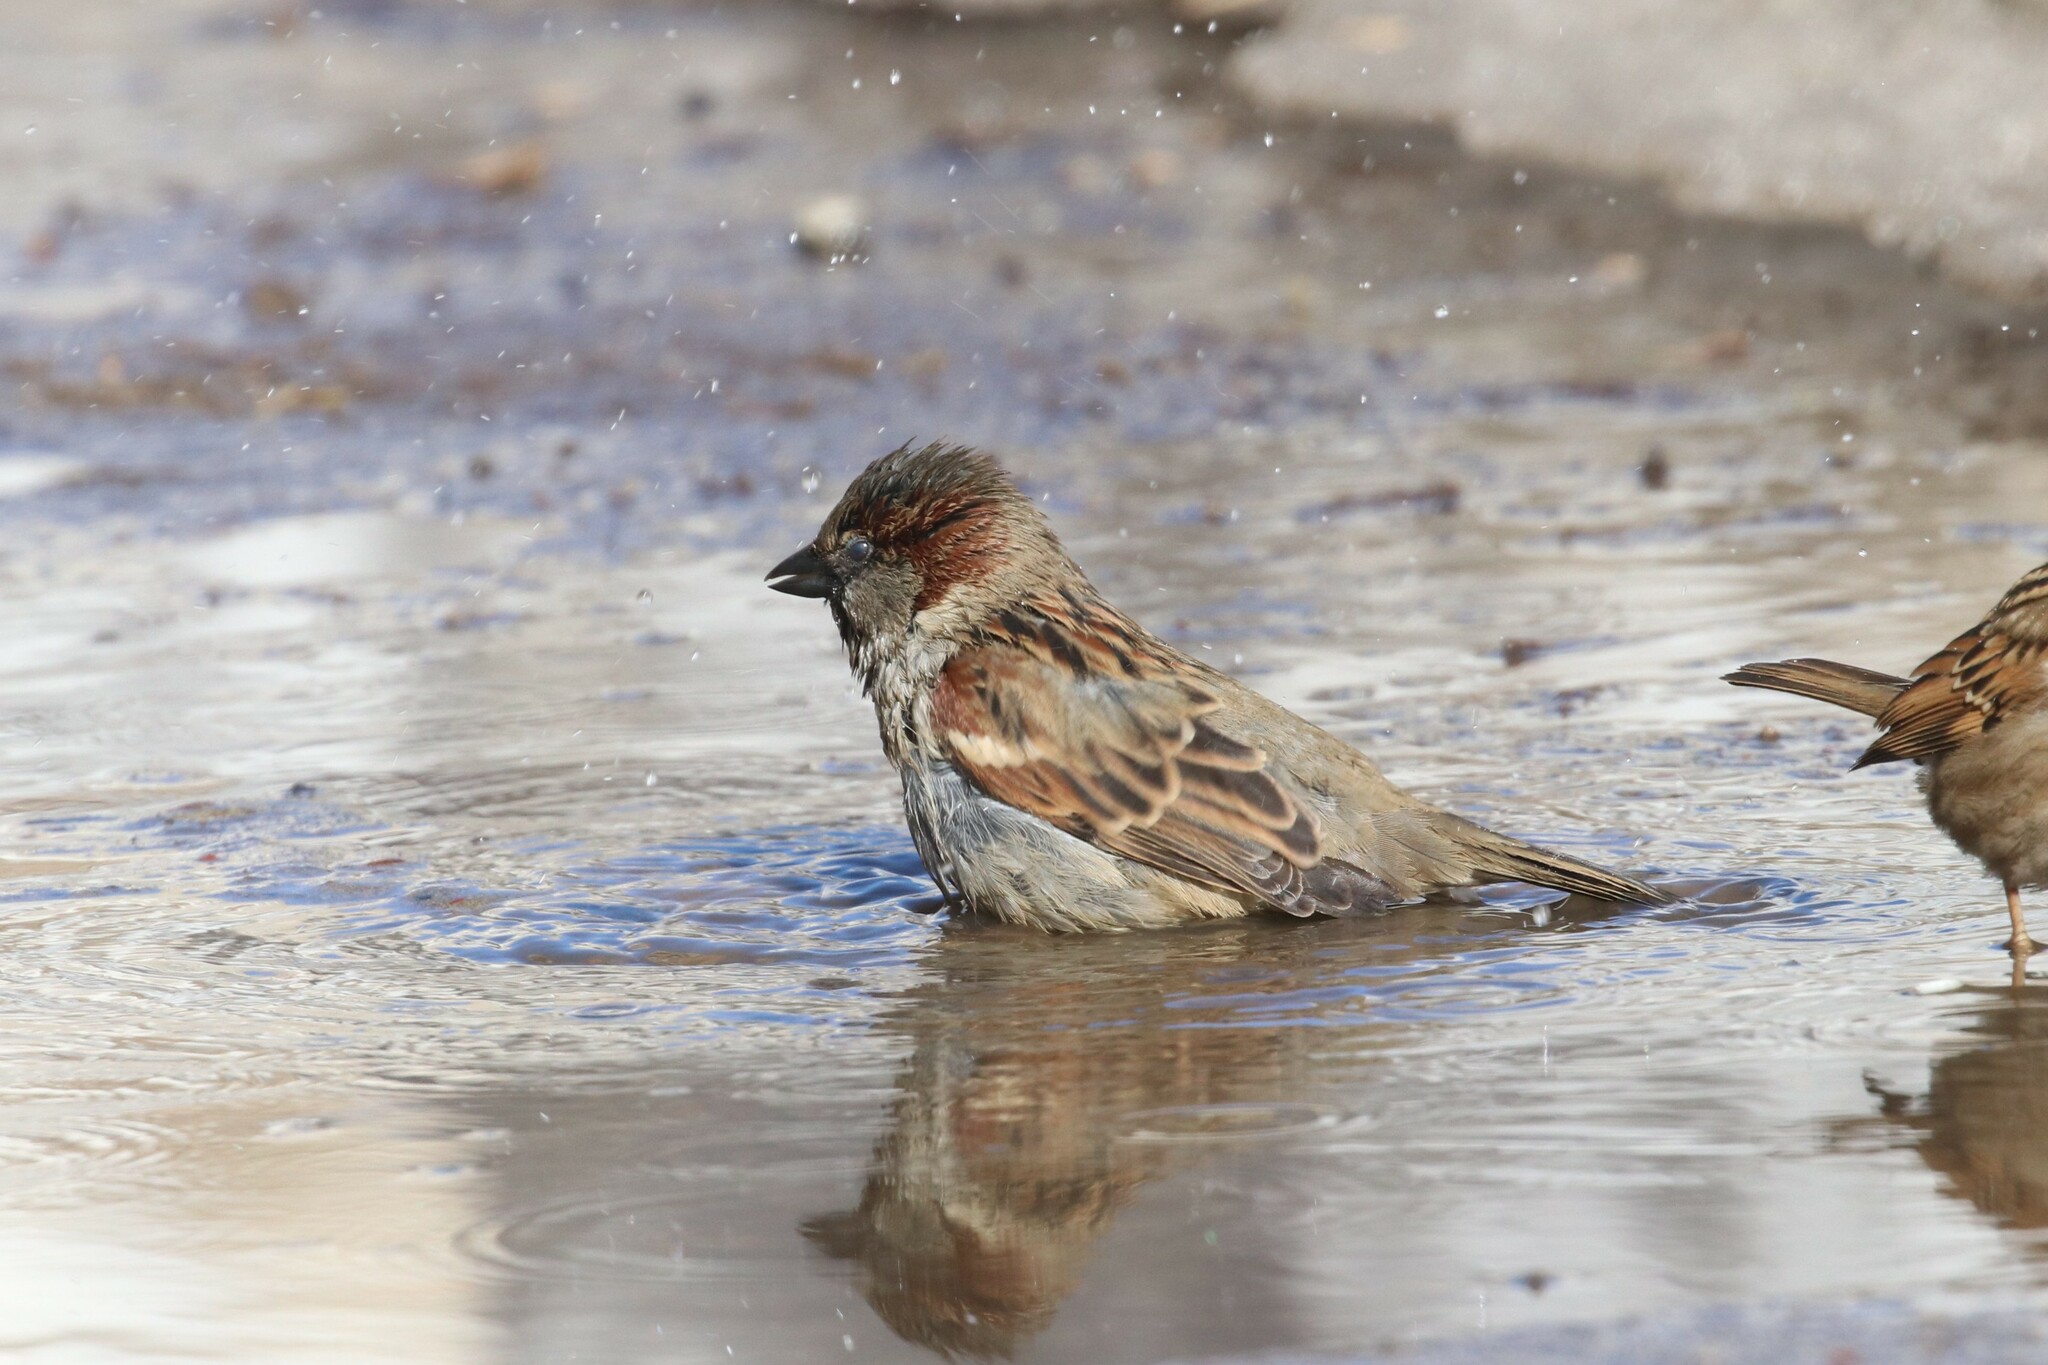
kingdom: Animalia
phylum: Chordata
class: Aves
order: Passeriformes
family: Passeridae
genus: Passer
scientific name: Passer domesticus
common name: House sparrow
